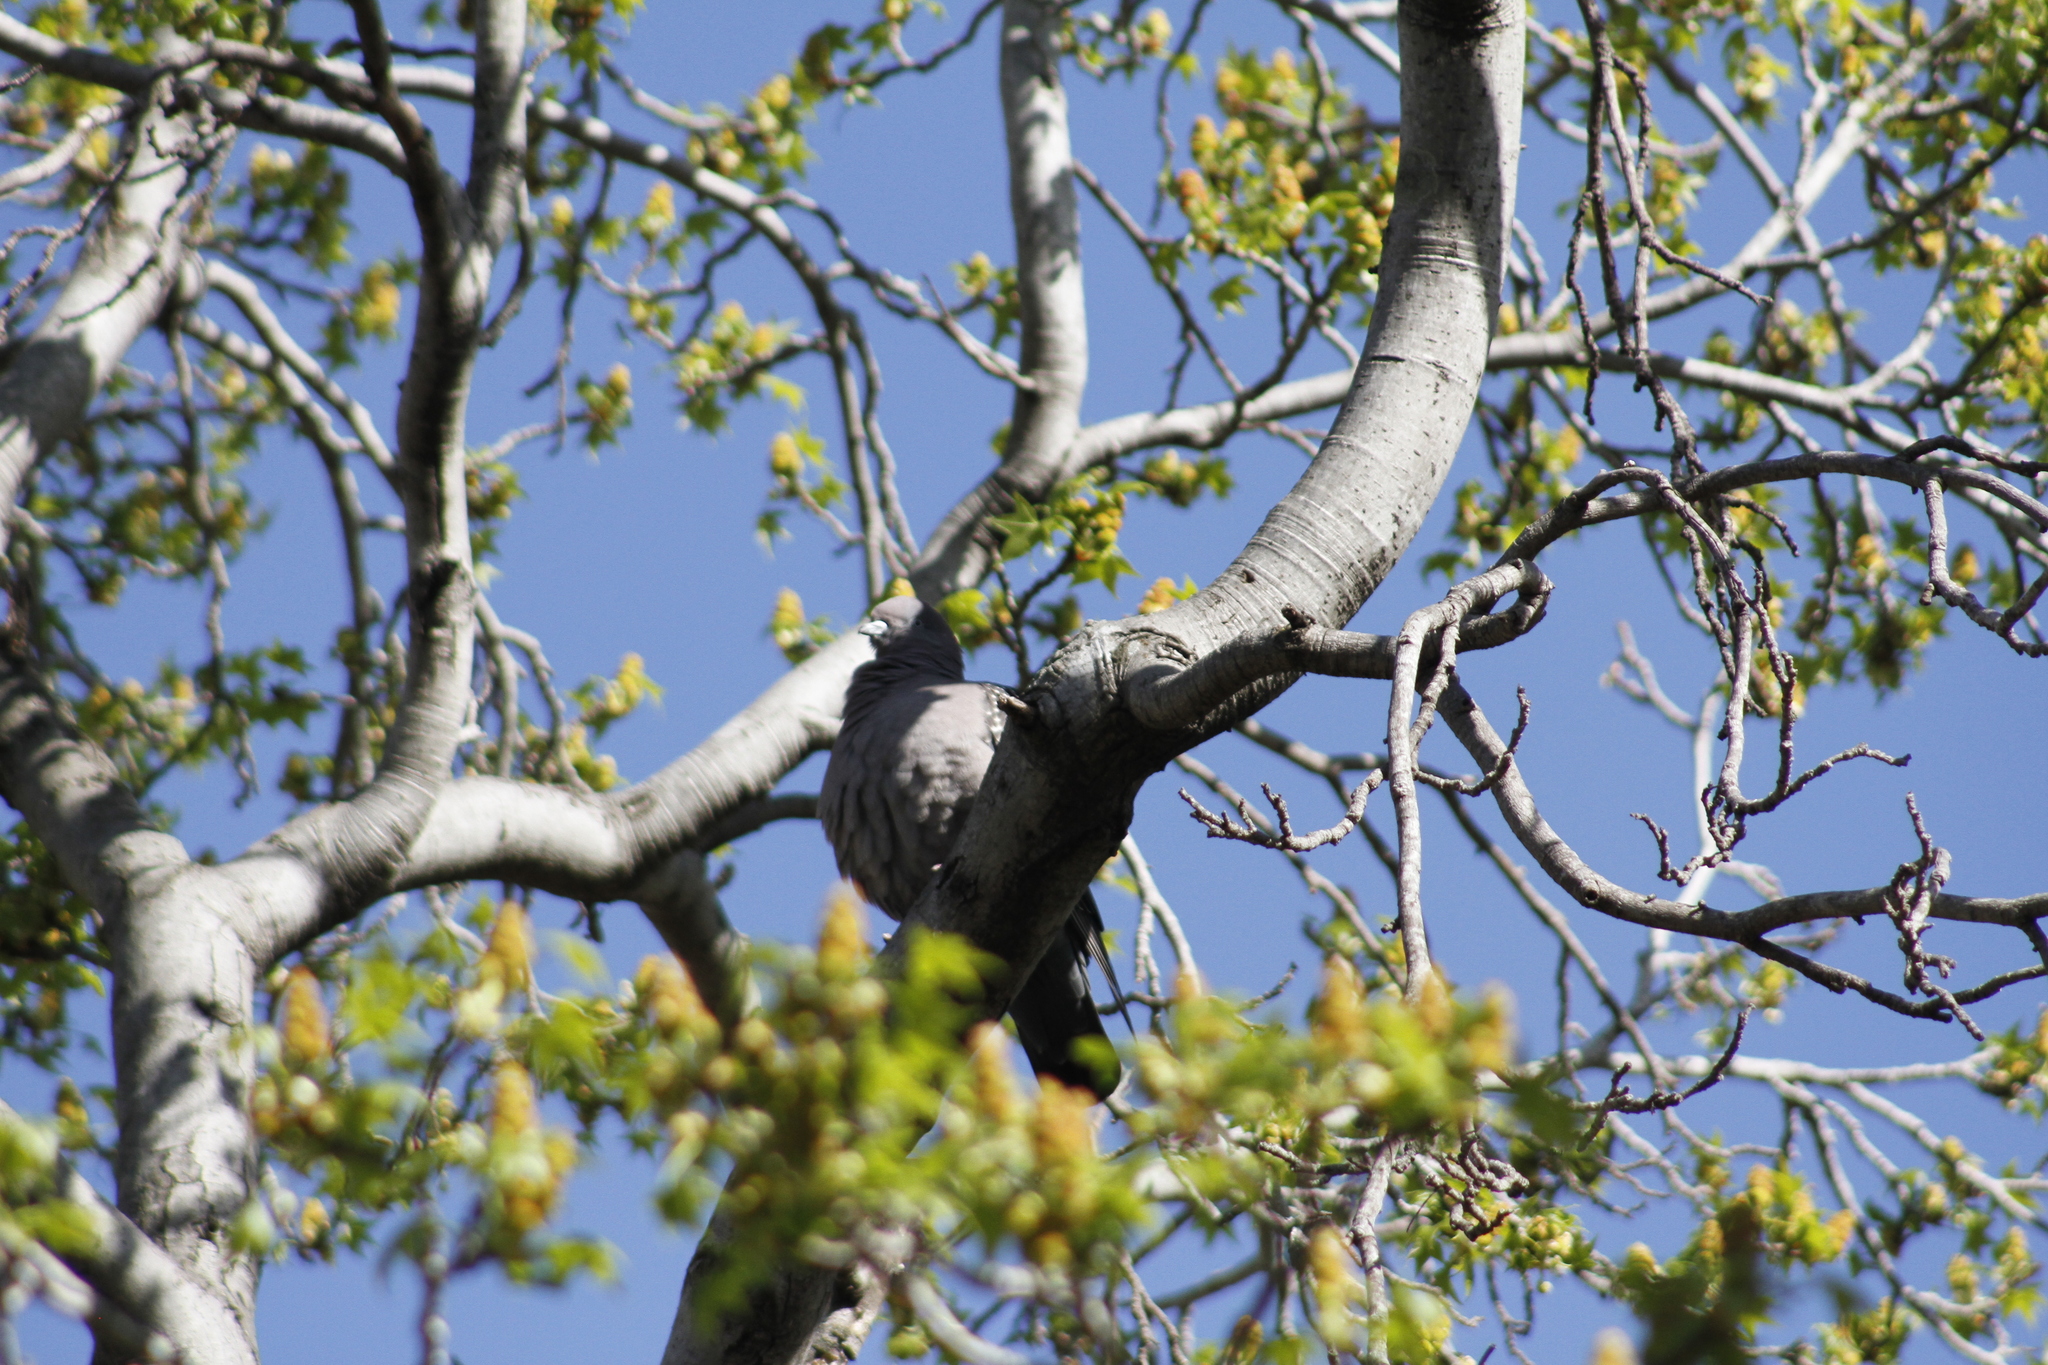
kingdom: Animalia
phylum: Chordata
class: Aves
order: Columbiformes
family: Columbidae
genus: Patagioenas
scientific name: Patagioenas maculosa
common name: Spot-winged pigeon
